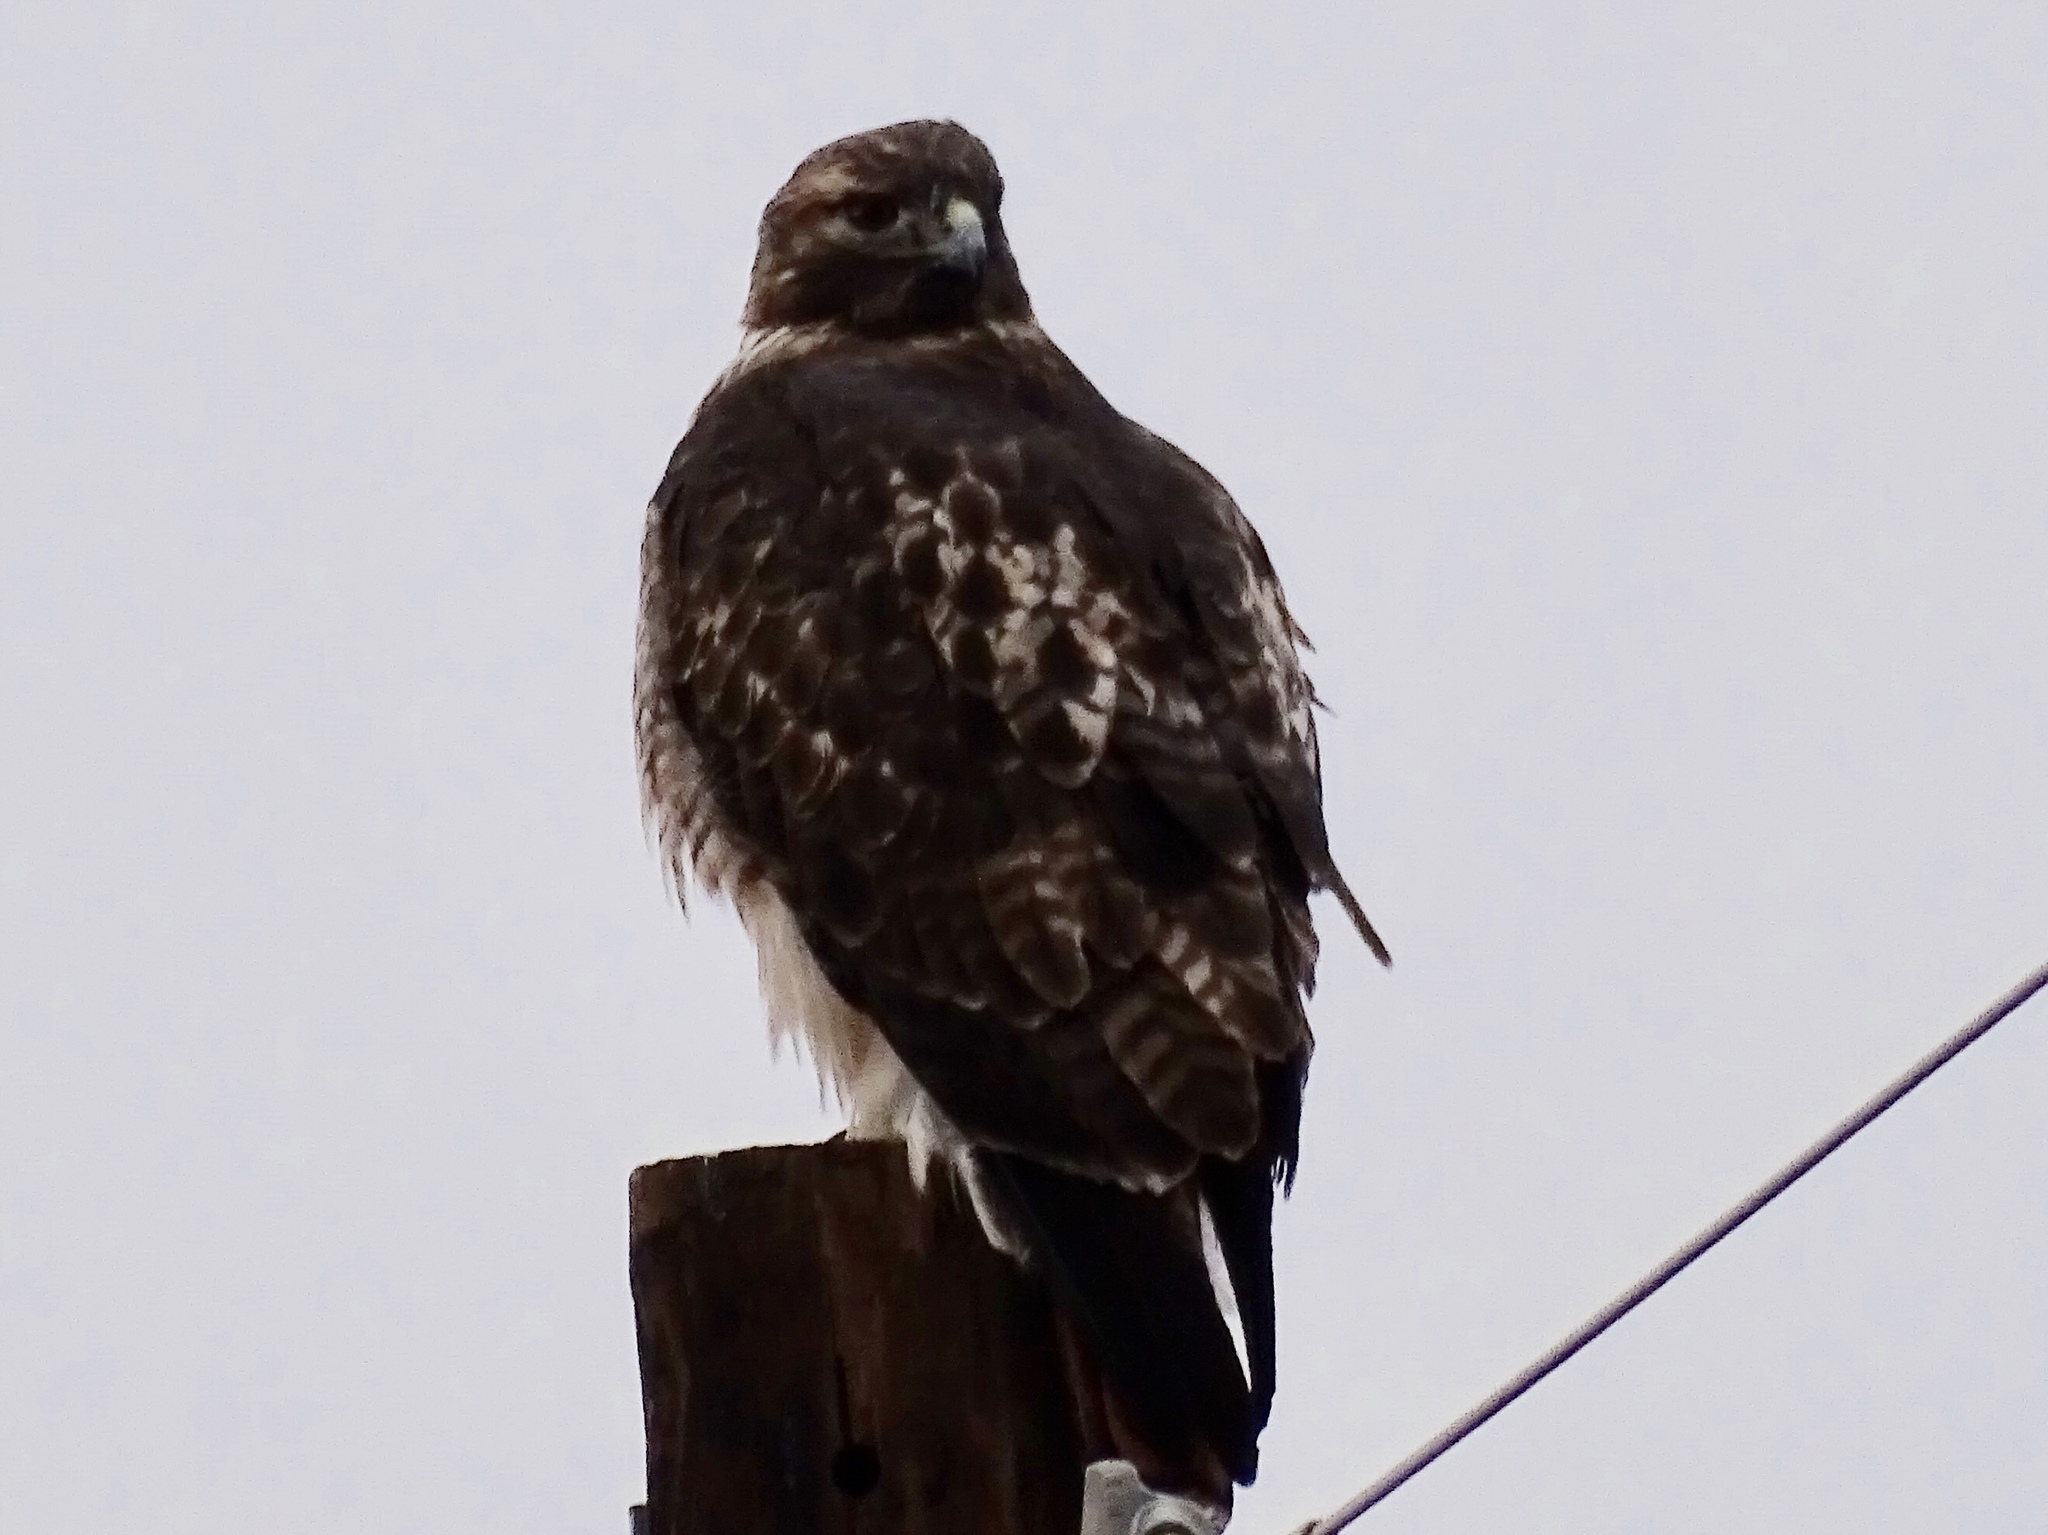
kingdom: Animalia
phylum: Chordata
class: Aves
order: Accipitriformes
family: Accipitridae
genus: Buteo
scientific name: Buteo jamaicensis
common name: Red-tailed hawk
